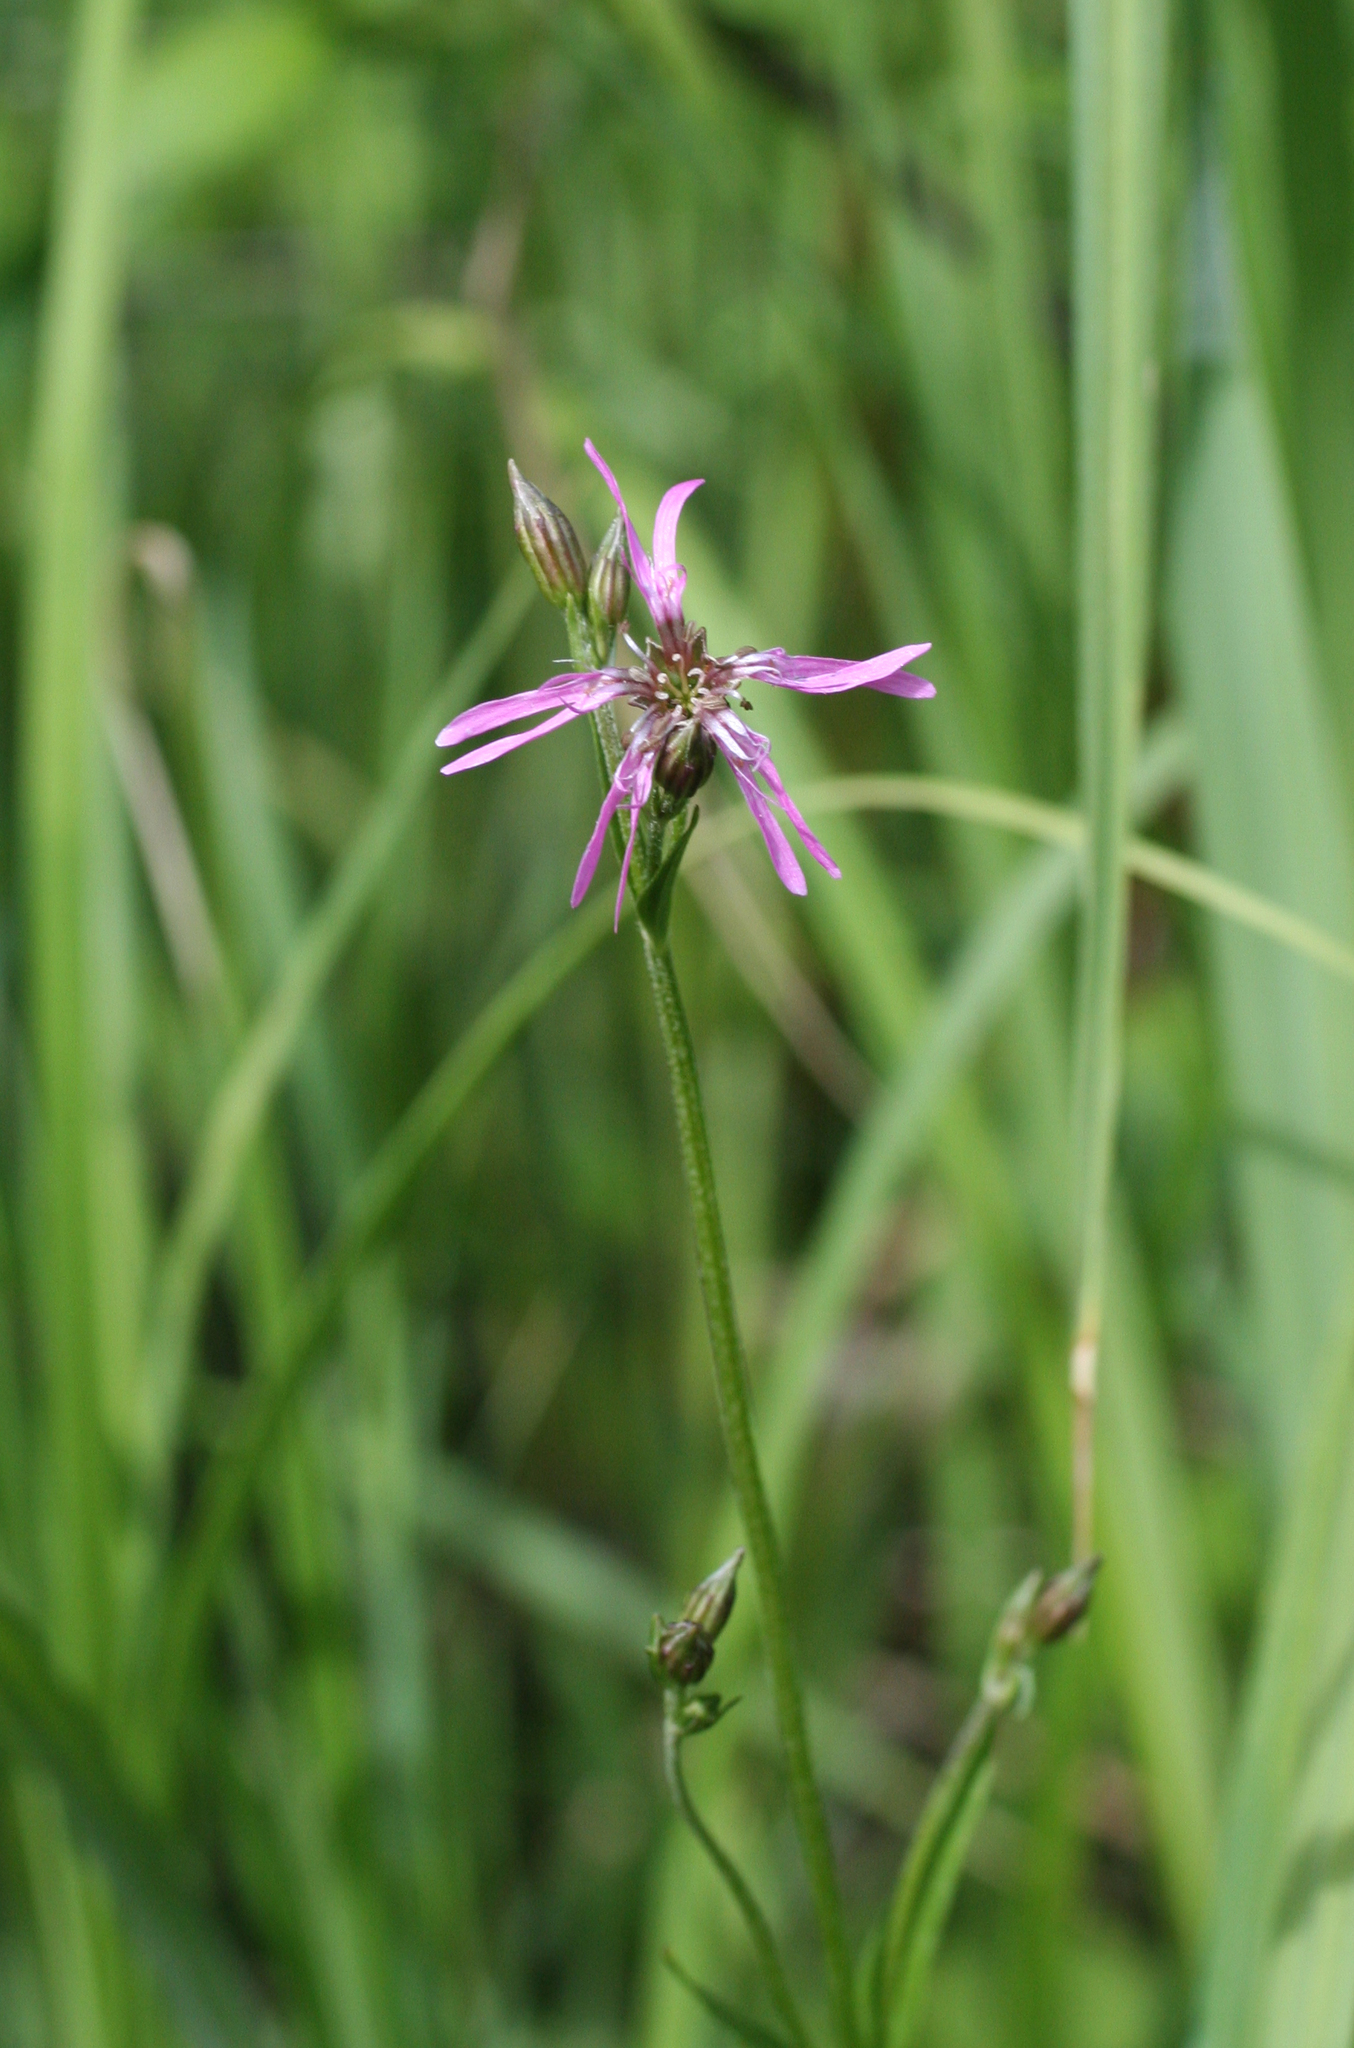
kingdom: Plantae
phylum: Tracheophyta
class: Magnoliopsida
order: Caryophyllales
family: Caryophyllaceae
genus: Silene
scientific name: Silene flos-cuculi
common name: Ragged-robin
